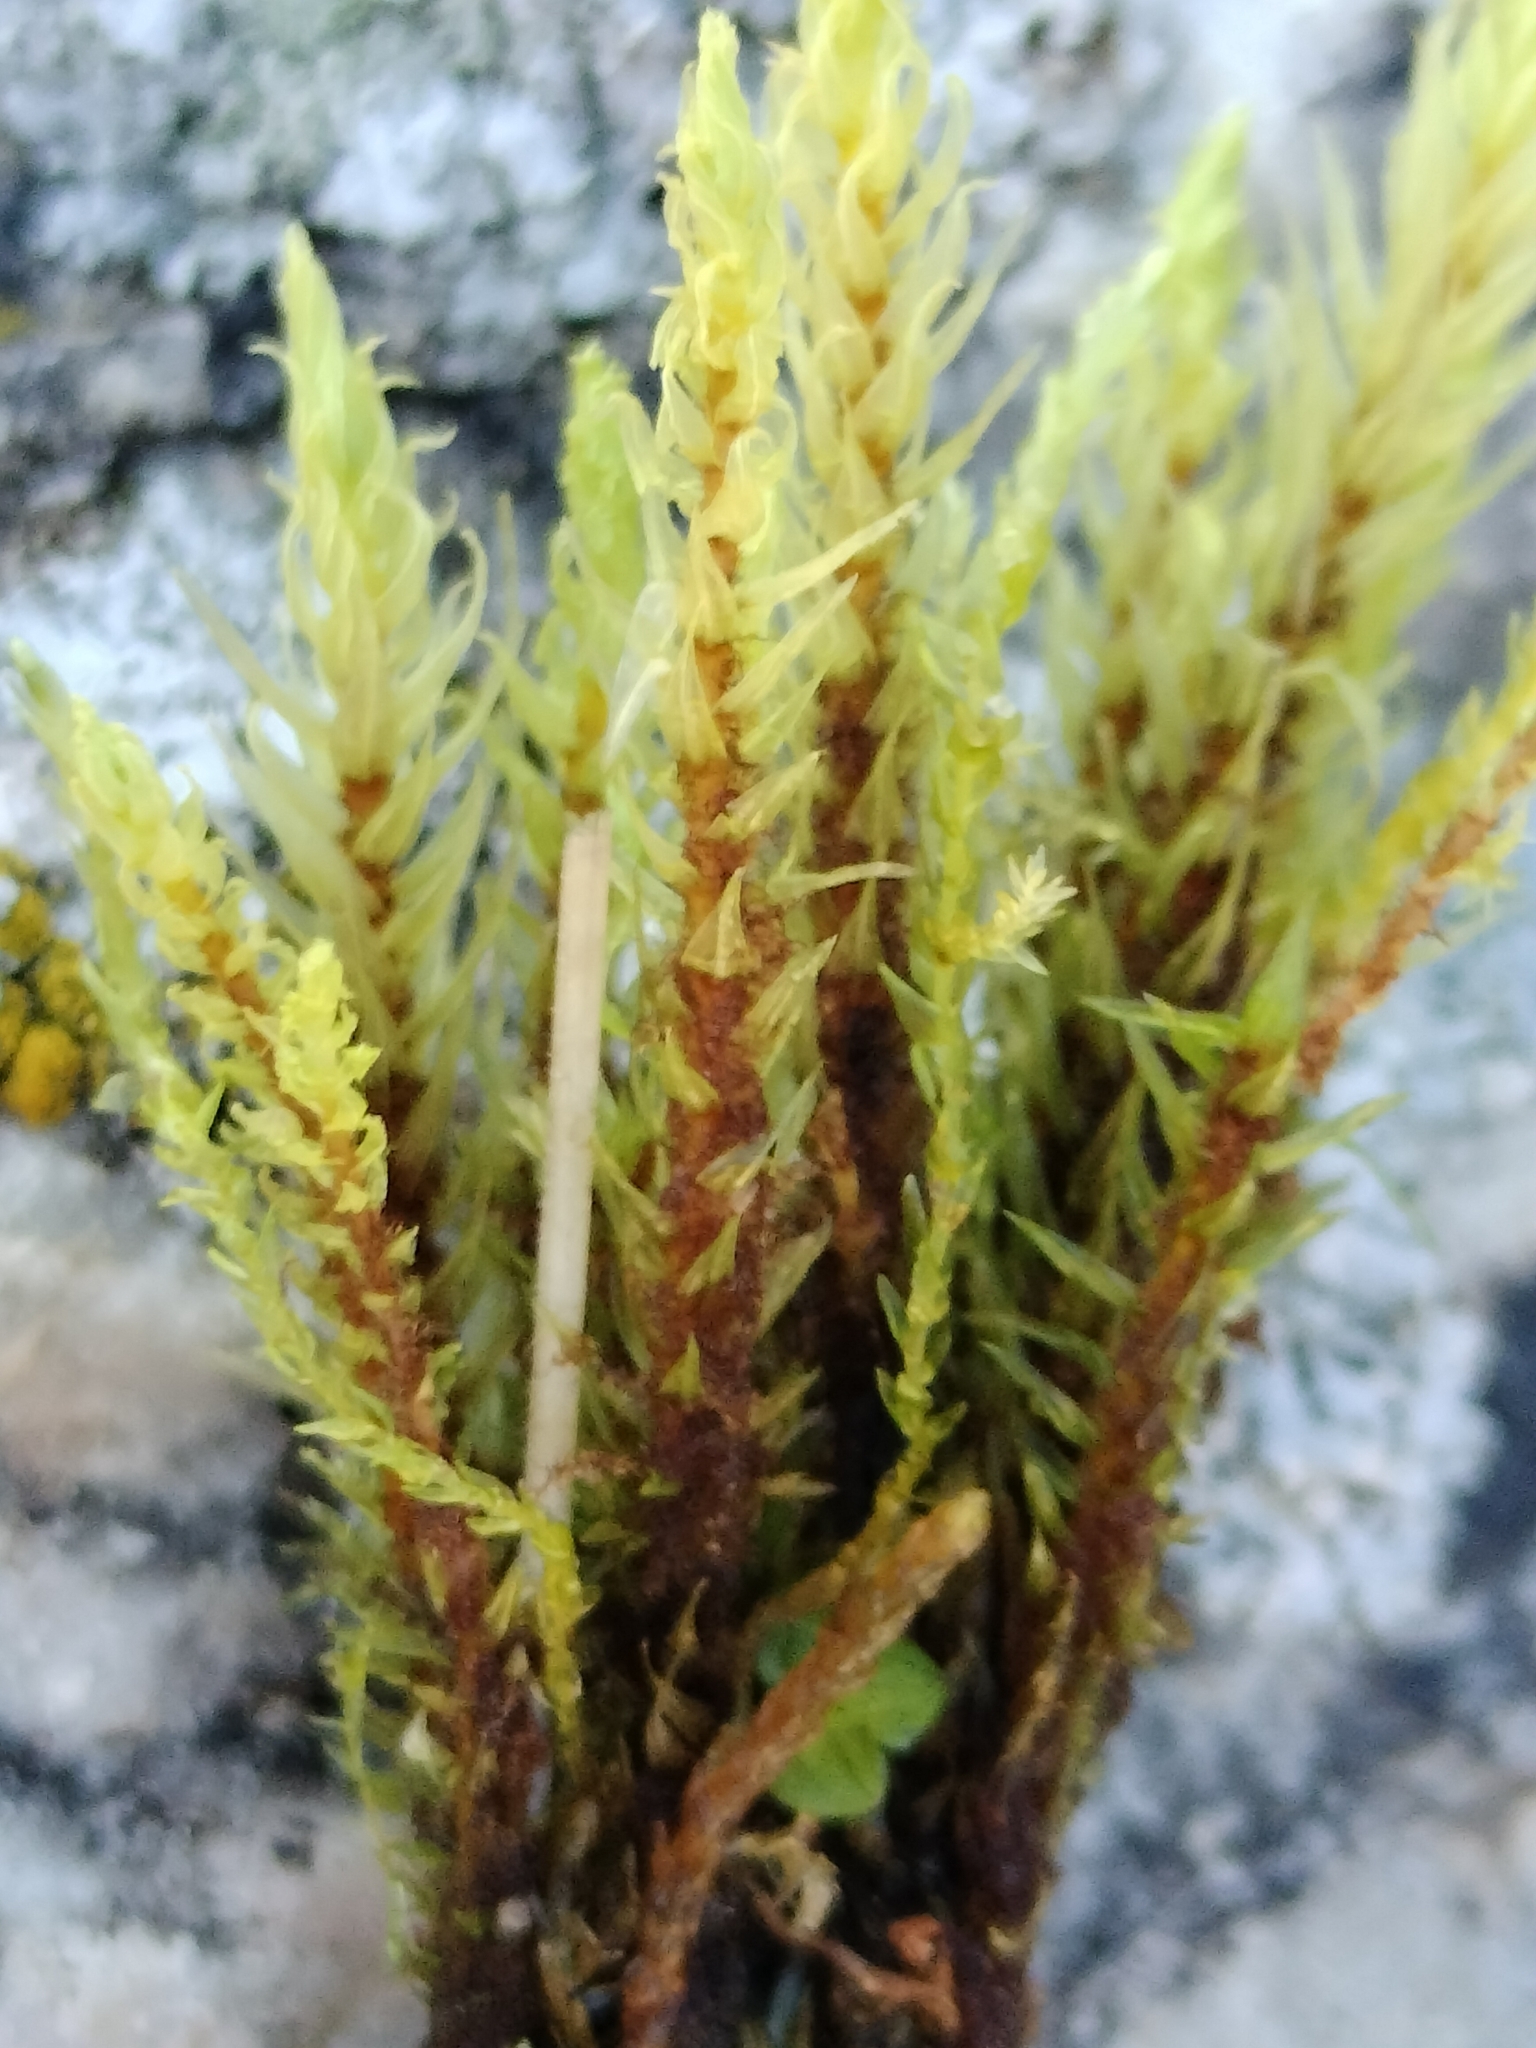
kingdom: Plantae
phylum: Bryophyta
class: Bryopsida
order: Aulacomniales
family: Aulacomniaceae
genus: Aulacomnium
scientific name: Aulacomnium palustre
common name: Bog groove-moss
